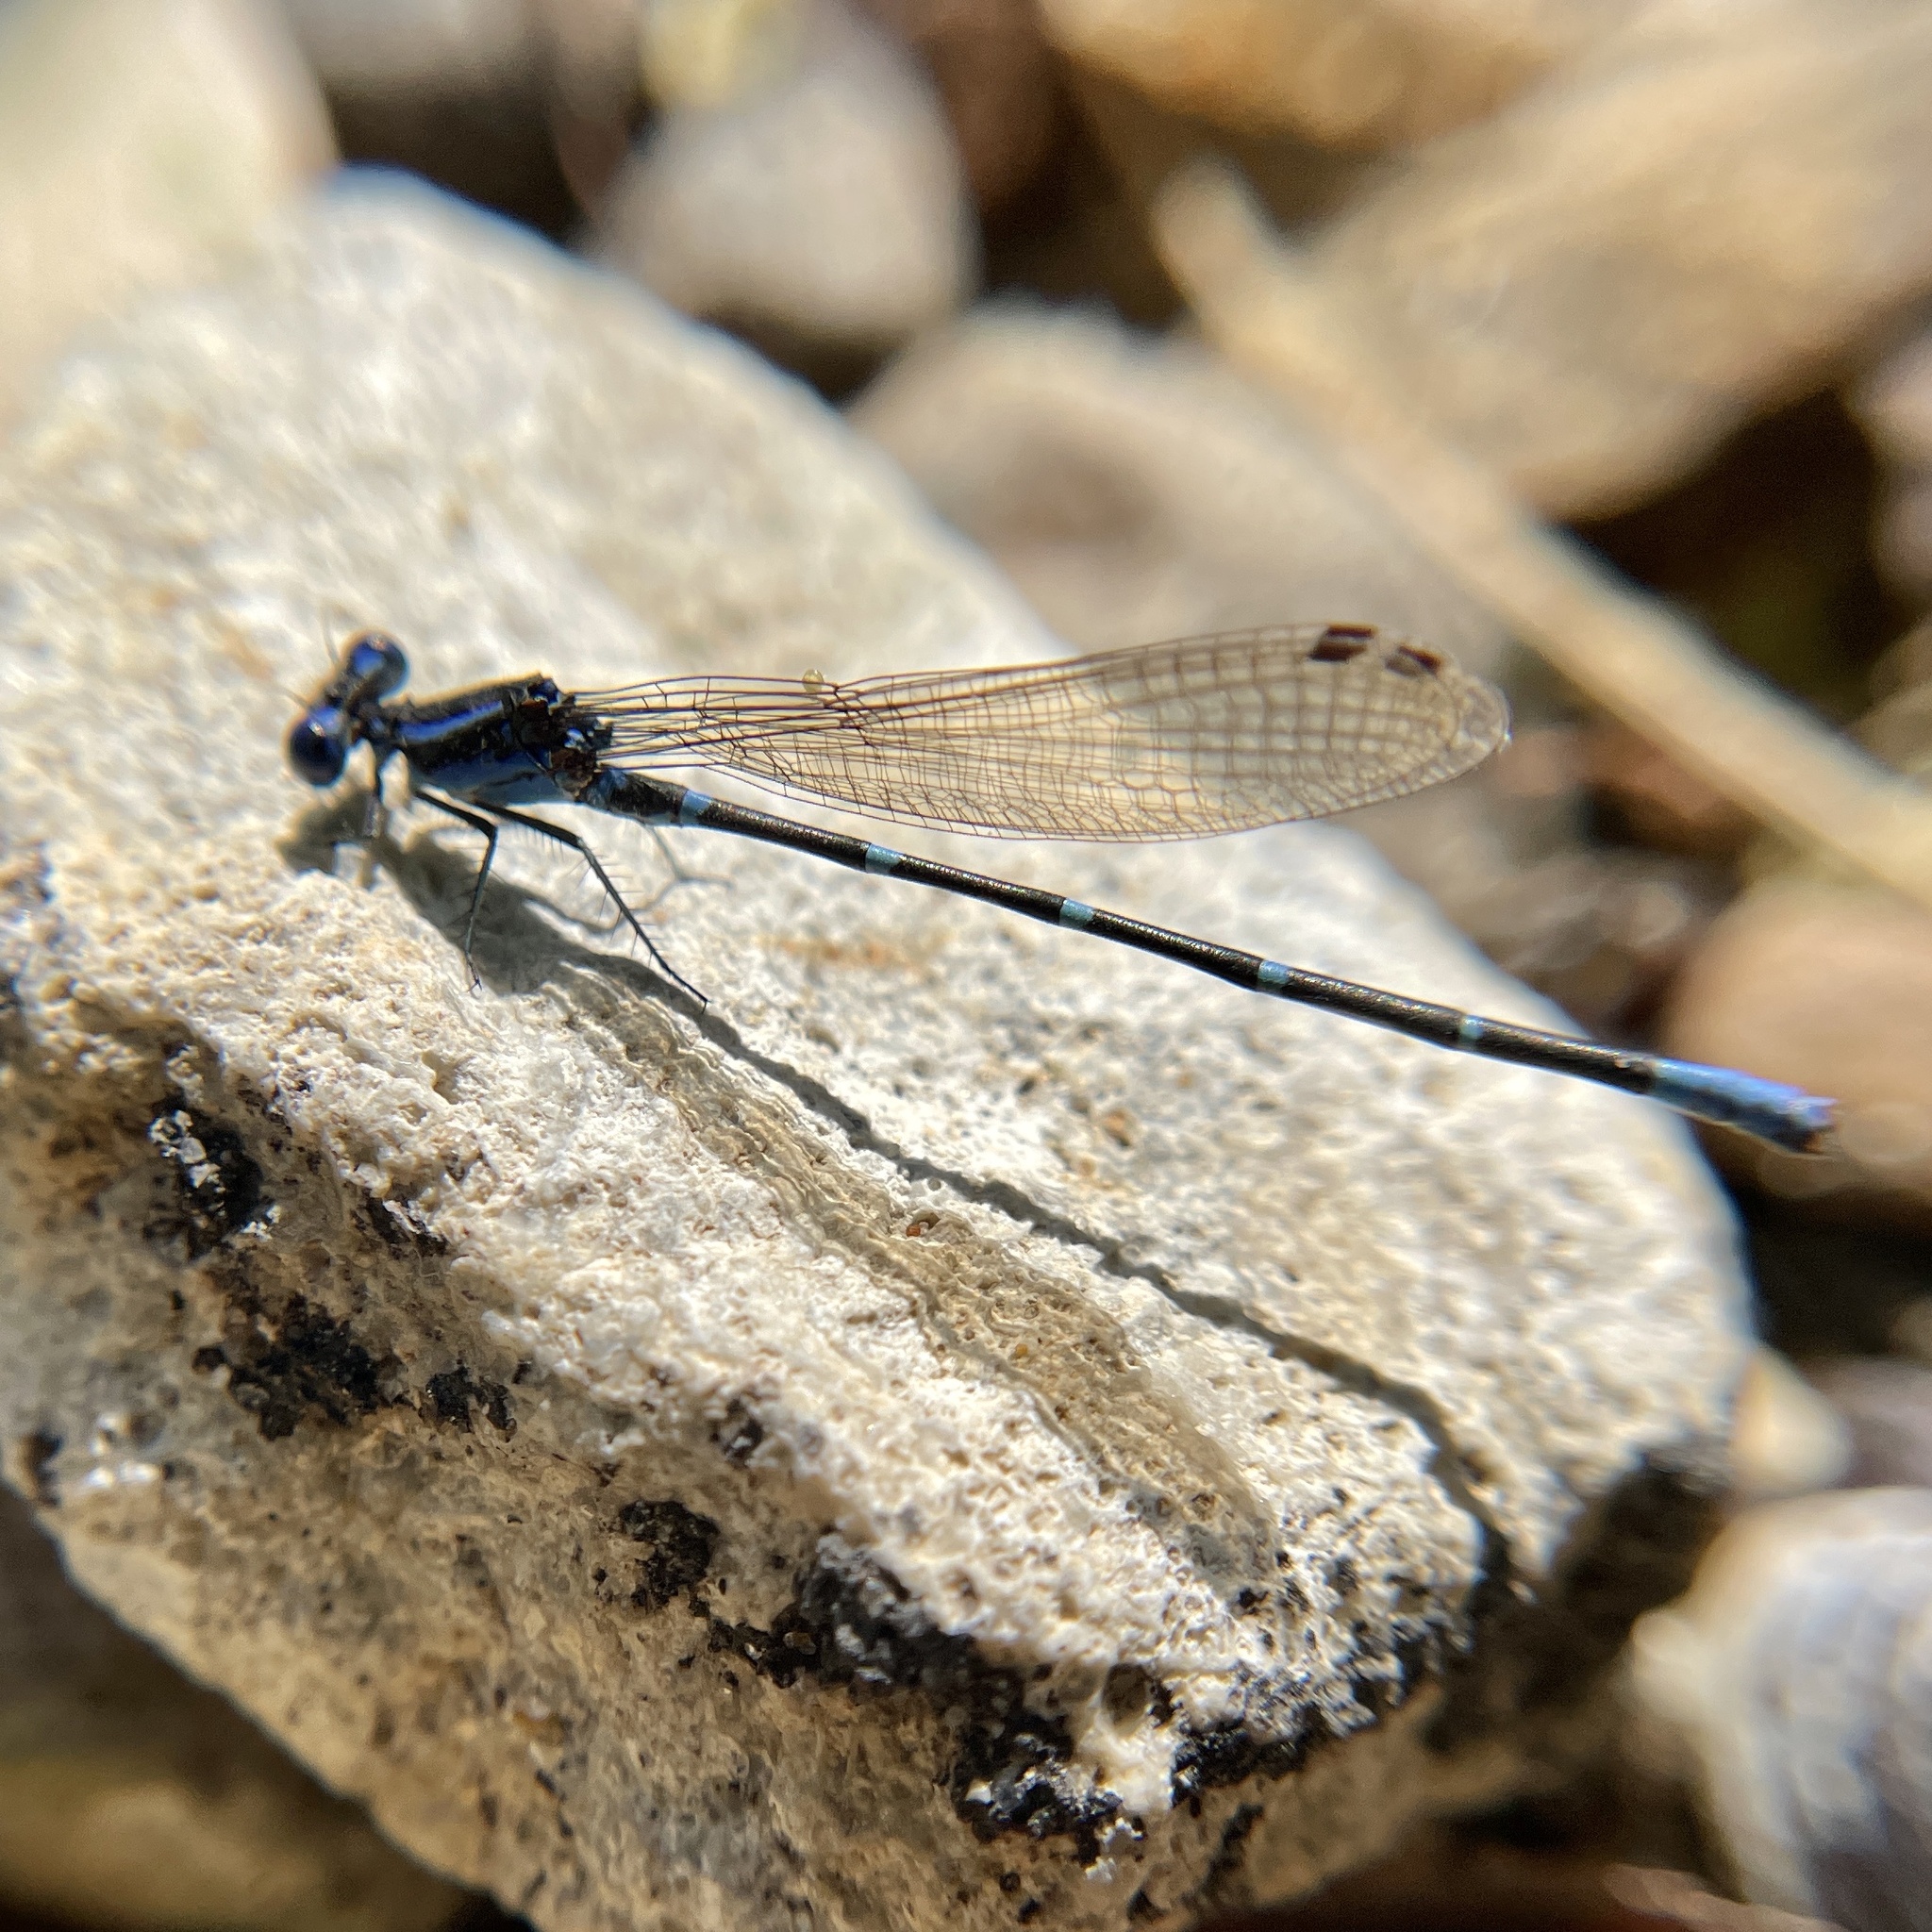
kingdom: Animalia
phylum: Arthropoda
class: Insecta
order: Odonata
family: Coenagrionidae
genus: Argia
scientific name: Argia sedula
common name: Blue-ringed dancer
